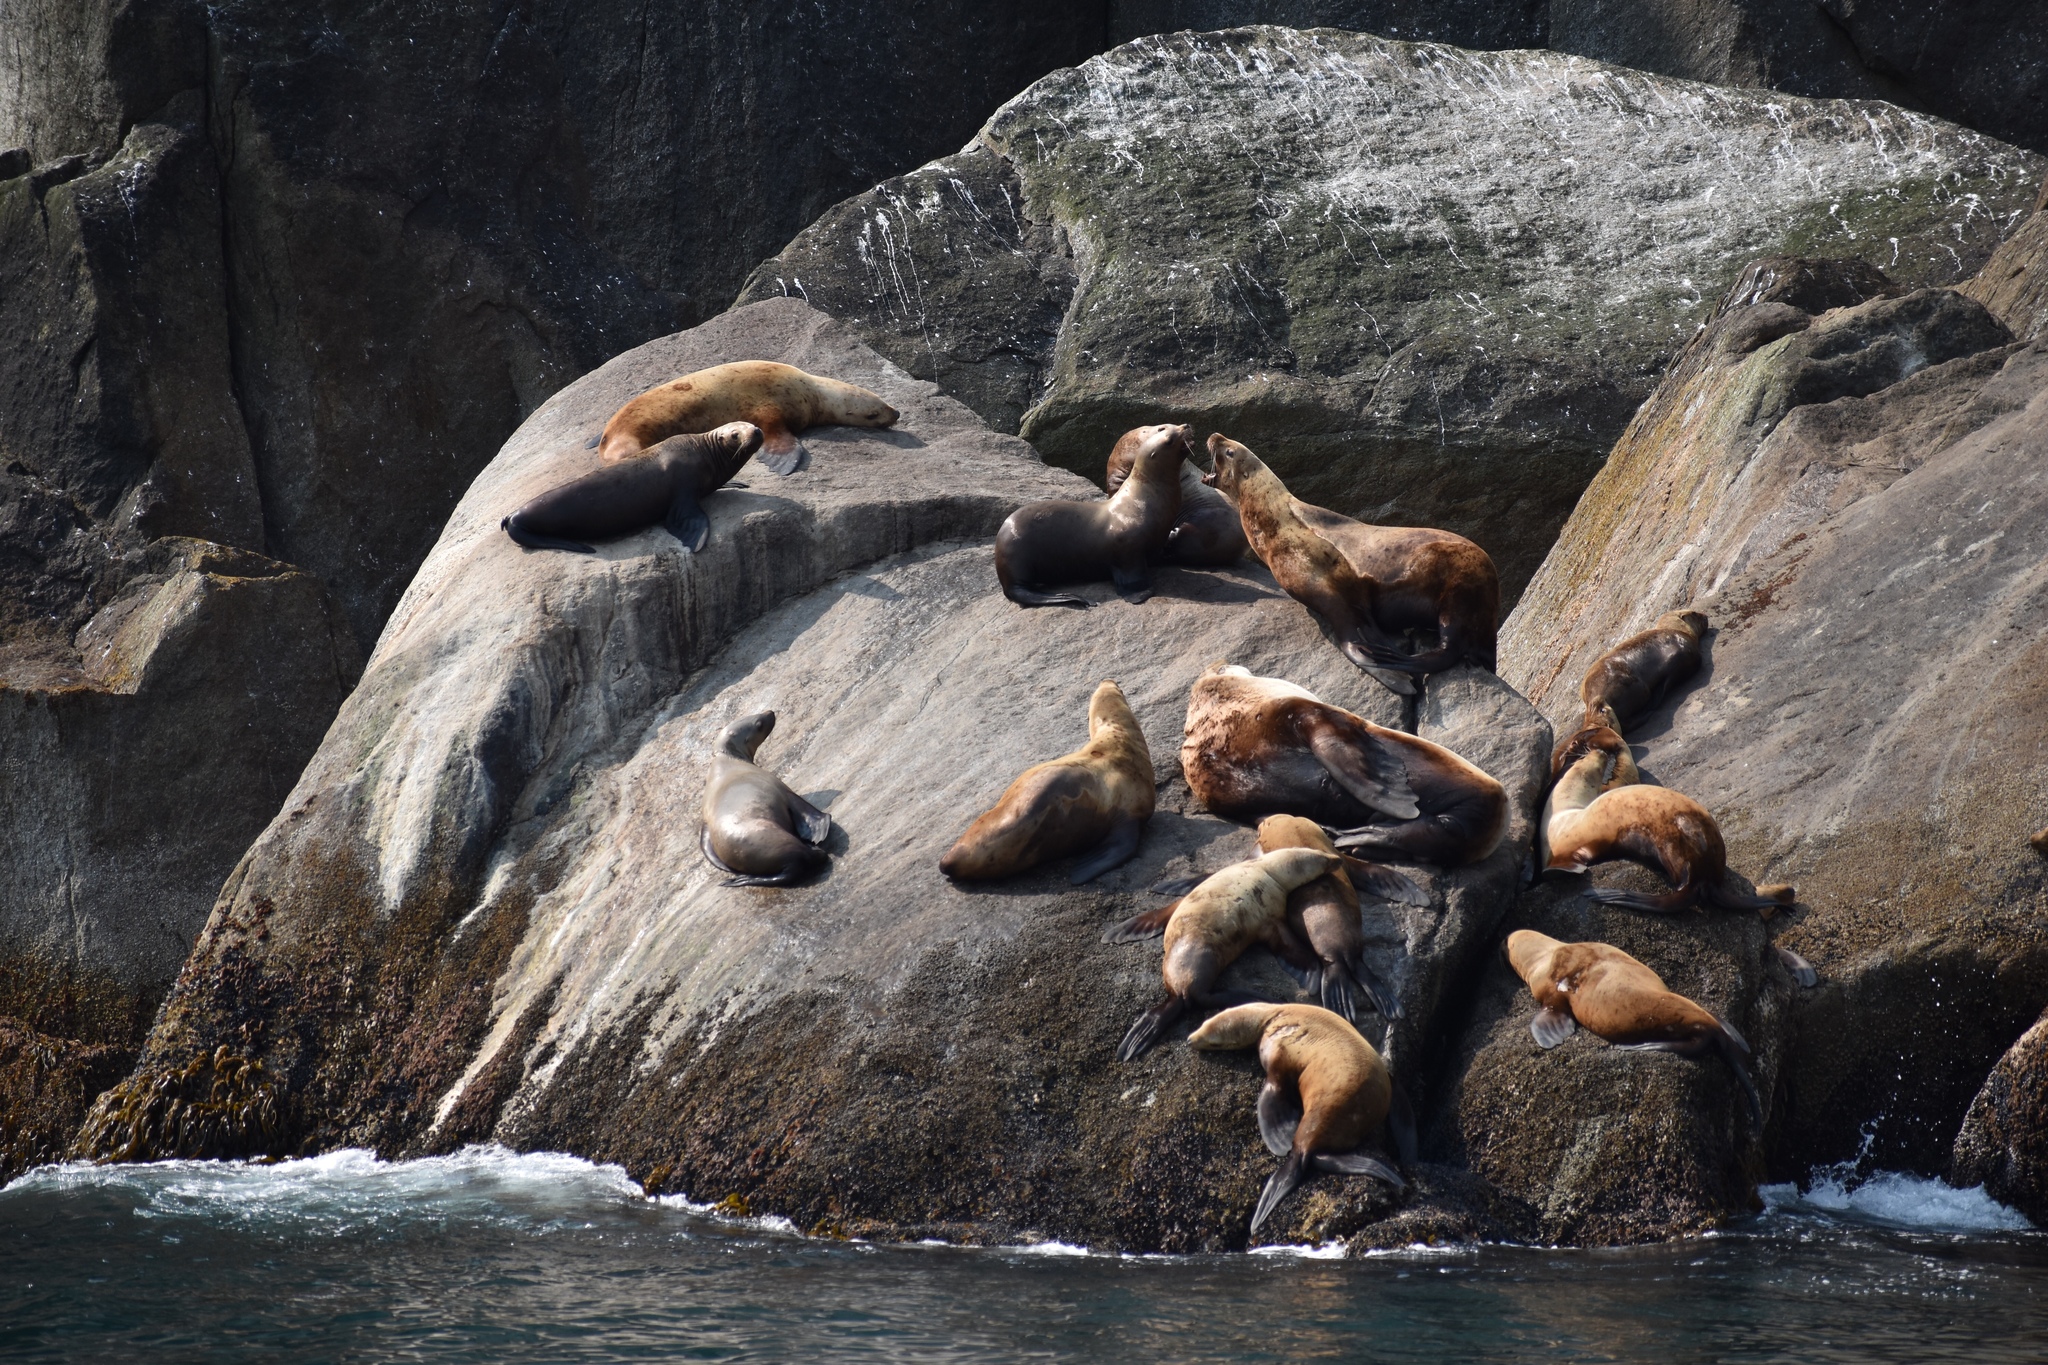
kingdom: Animalia
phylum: Chordata
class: Mammalia
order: Carnivora
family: Otariidae
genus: Eumetopias
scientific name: Eumetopias jubatus
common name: Steller sea lion
